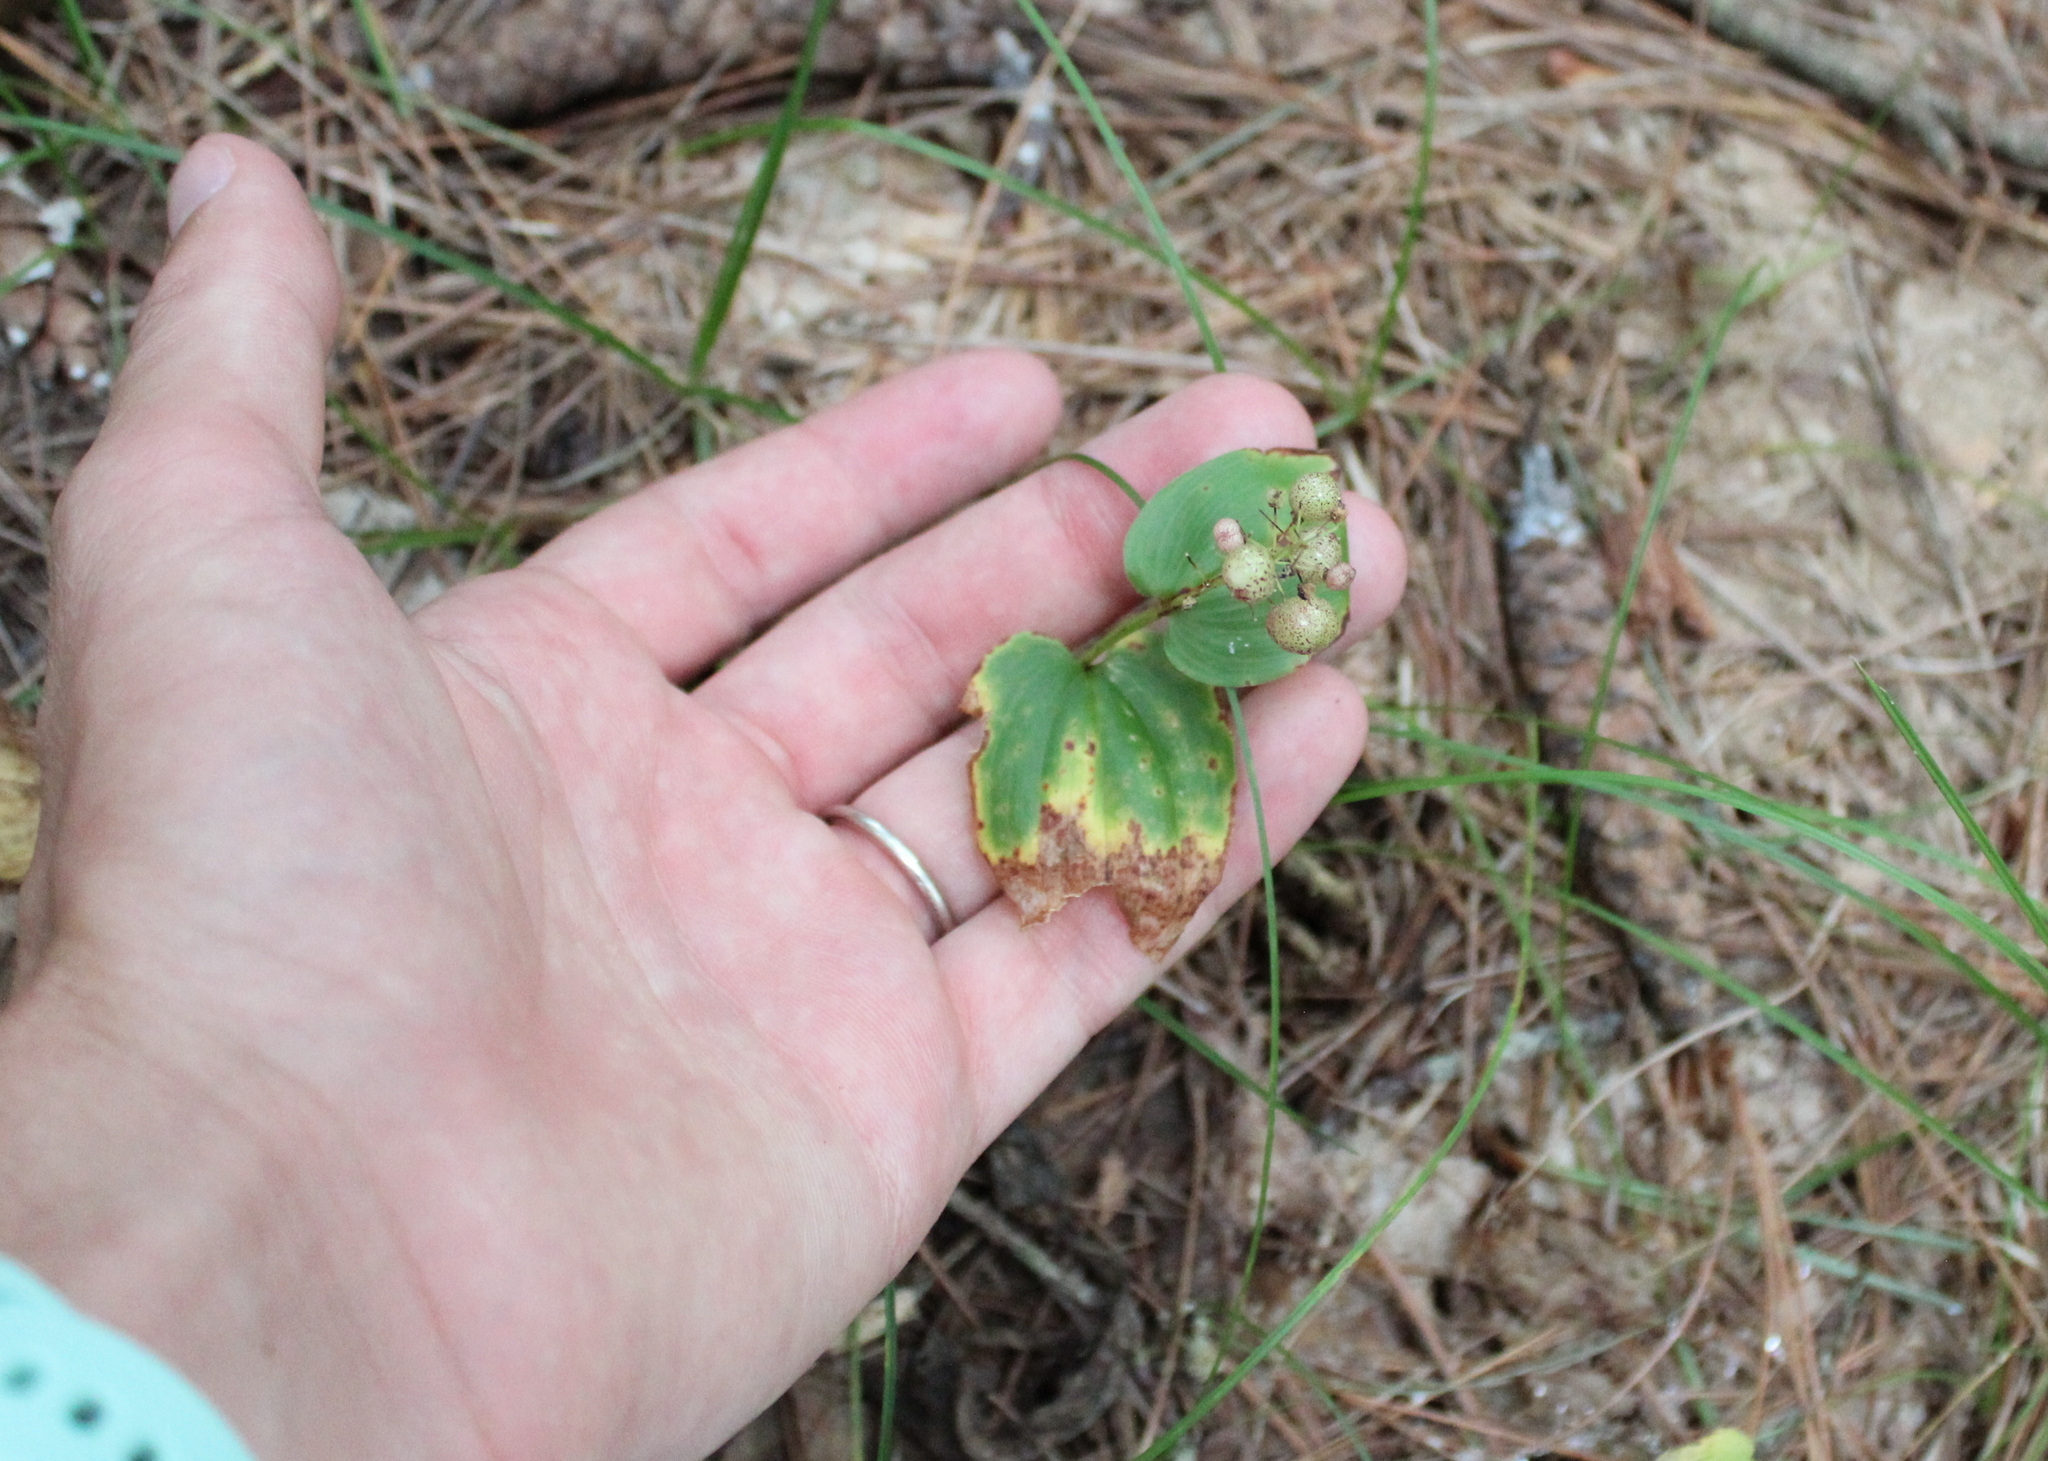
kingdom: Plantae
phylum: Tracheophyta
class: Liliopsida
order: Asparagales
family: Asparagaceae
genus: Maianthemum
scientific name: Maianthemum canadense
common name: False lily-of-the-valley
